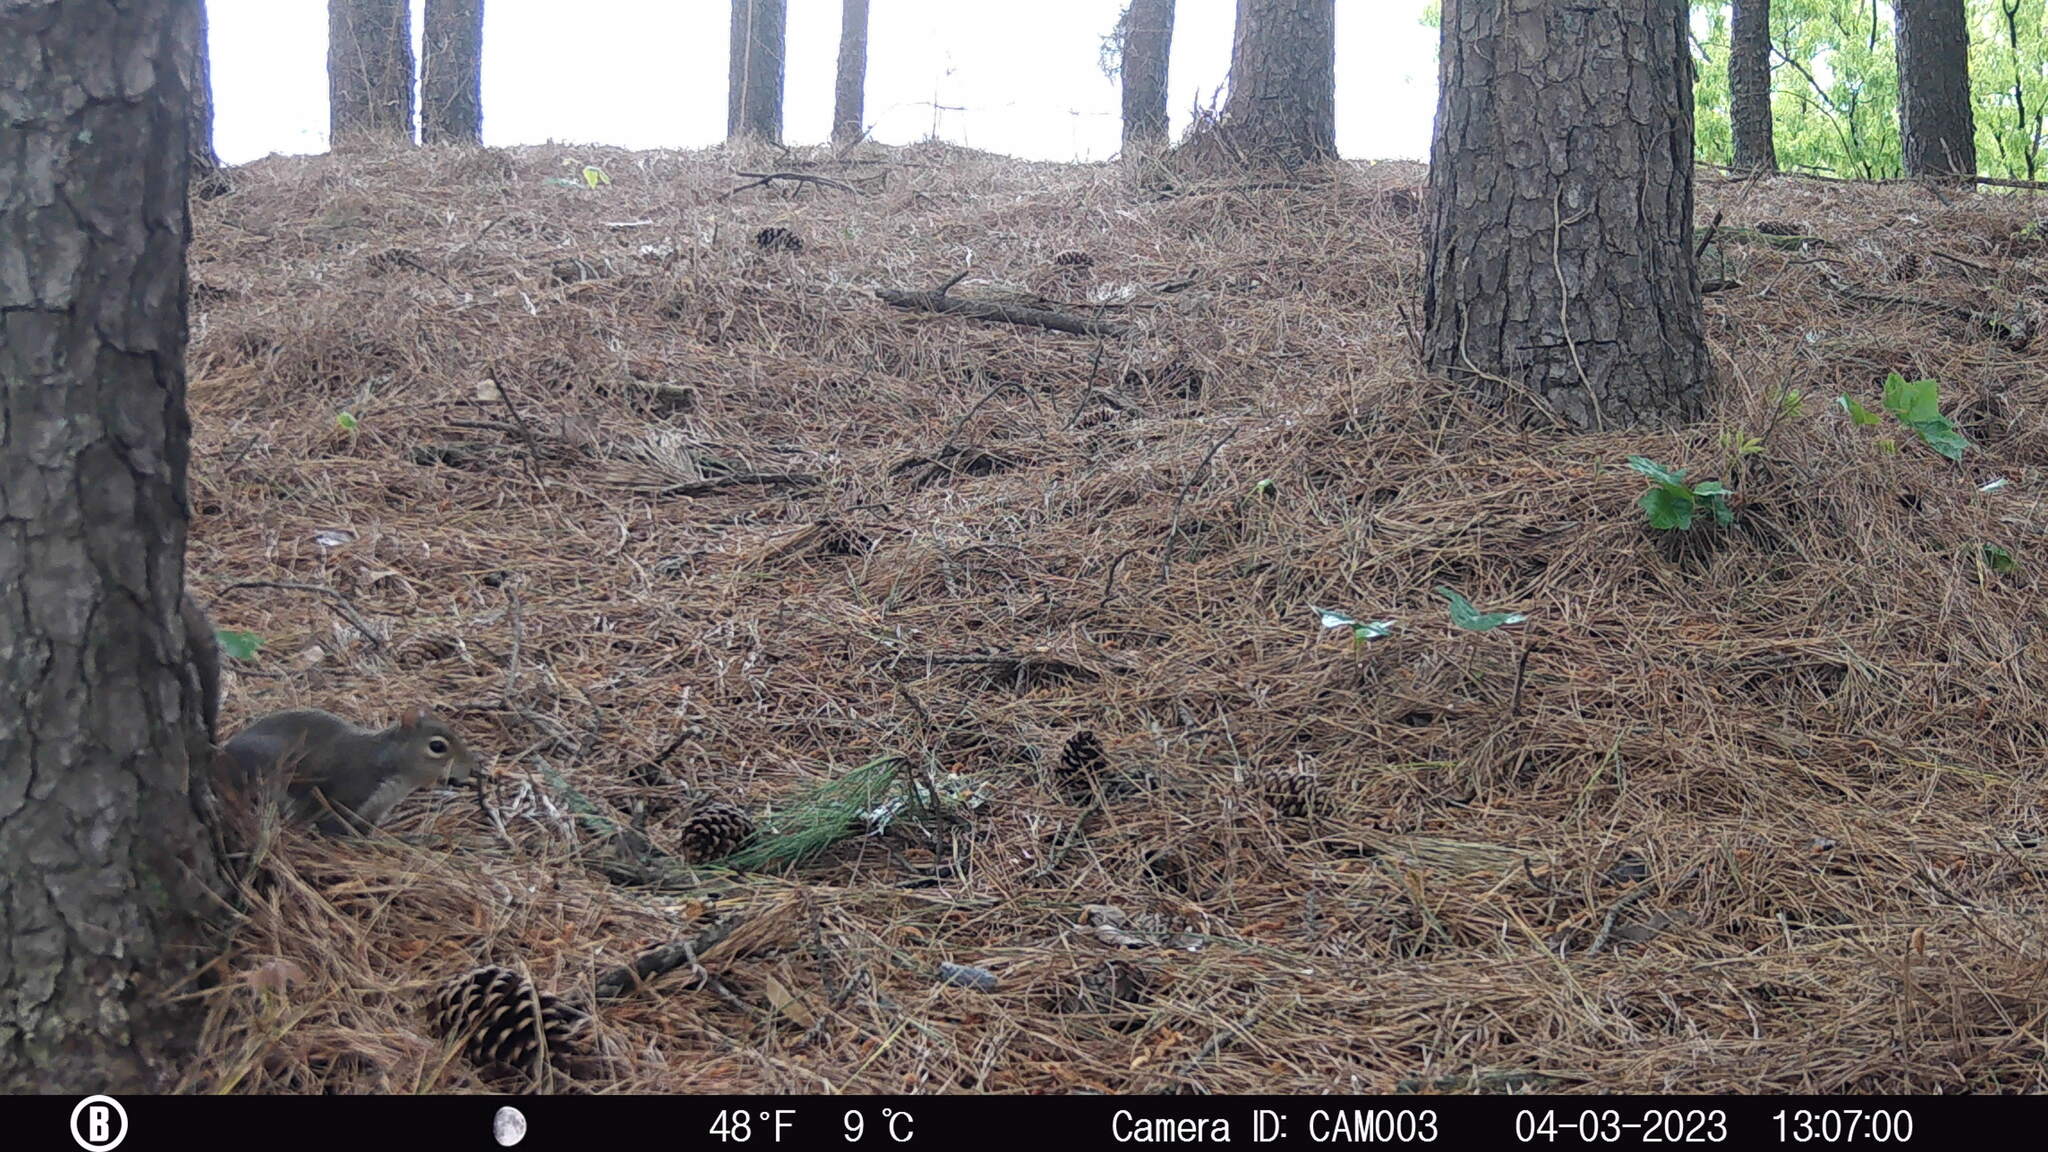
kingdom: Animalia
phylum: Chordata
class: Mammalia
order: Rodentia
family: Sciuridae
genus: Sciurus
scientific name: Sciurus carolinensis
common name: Eastern gray squirrel
